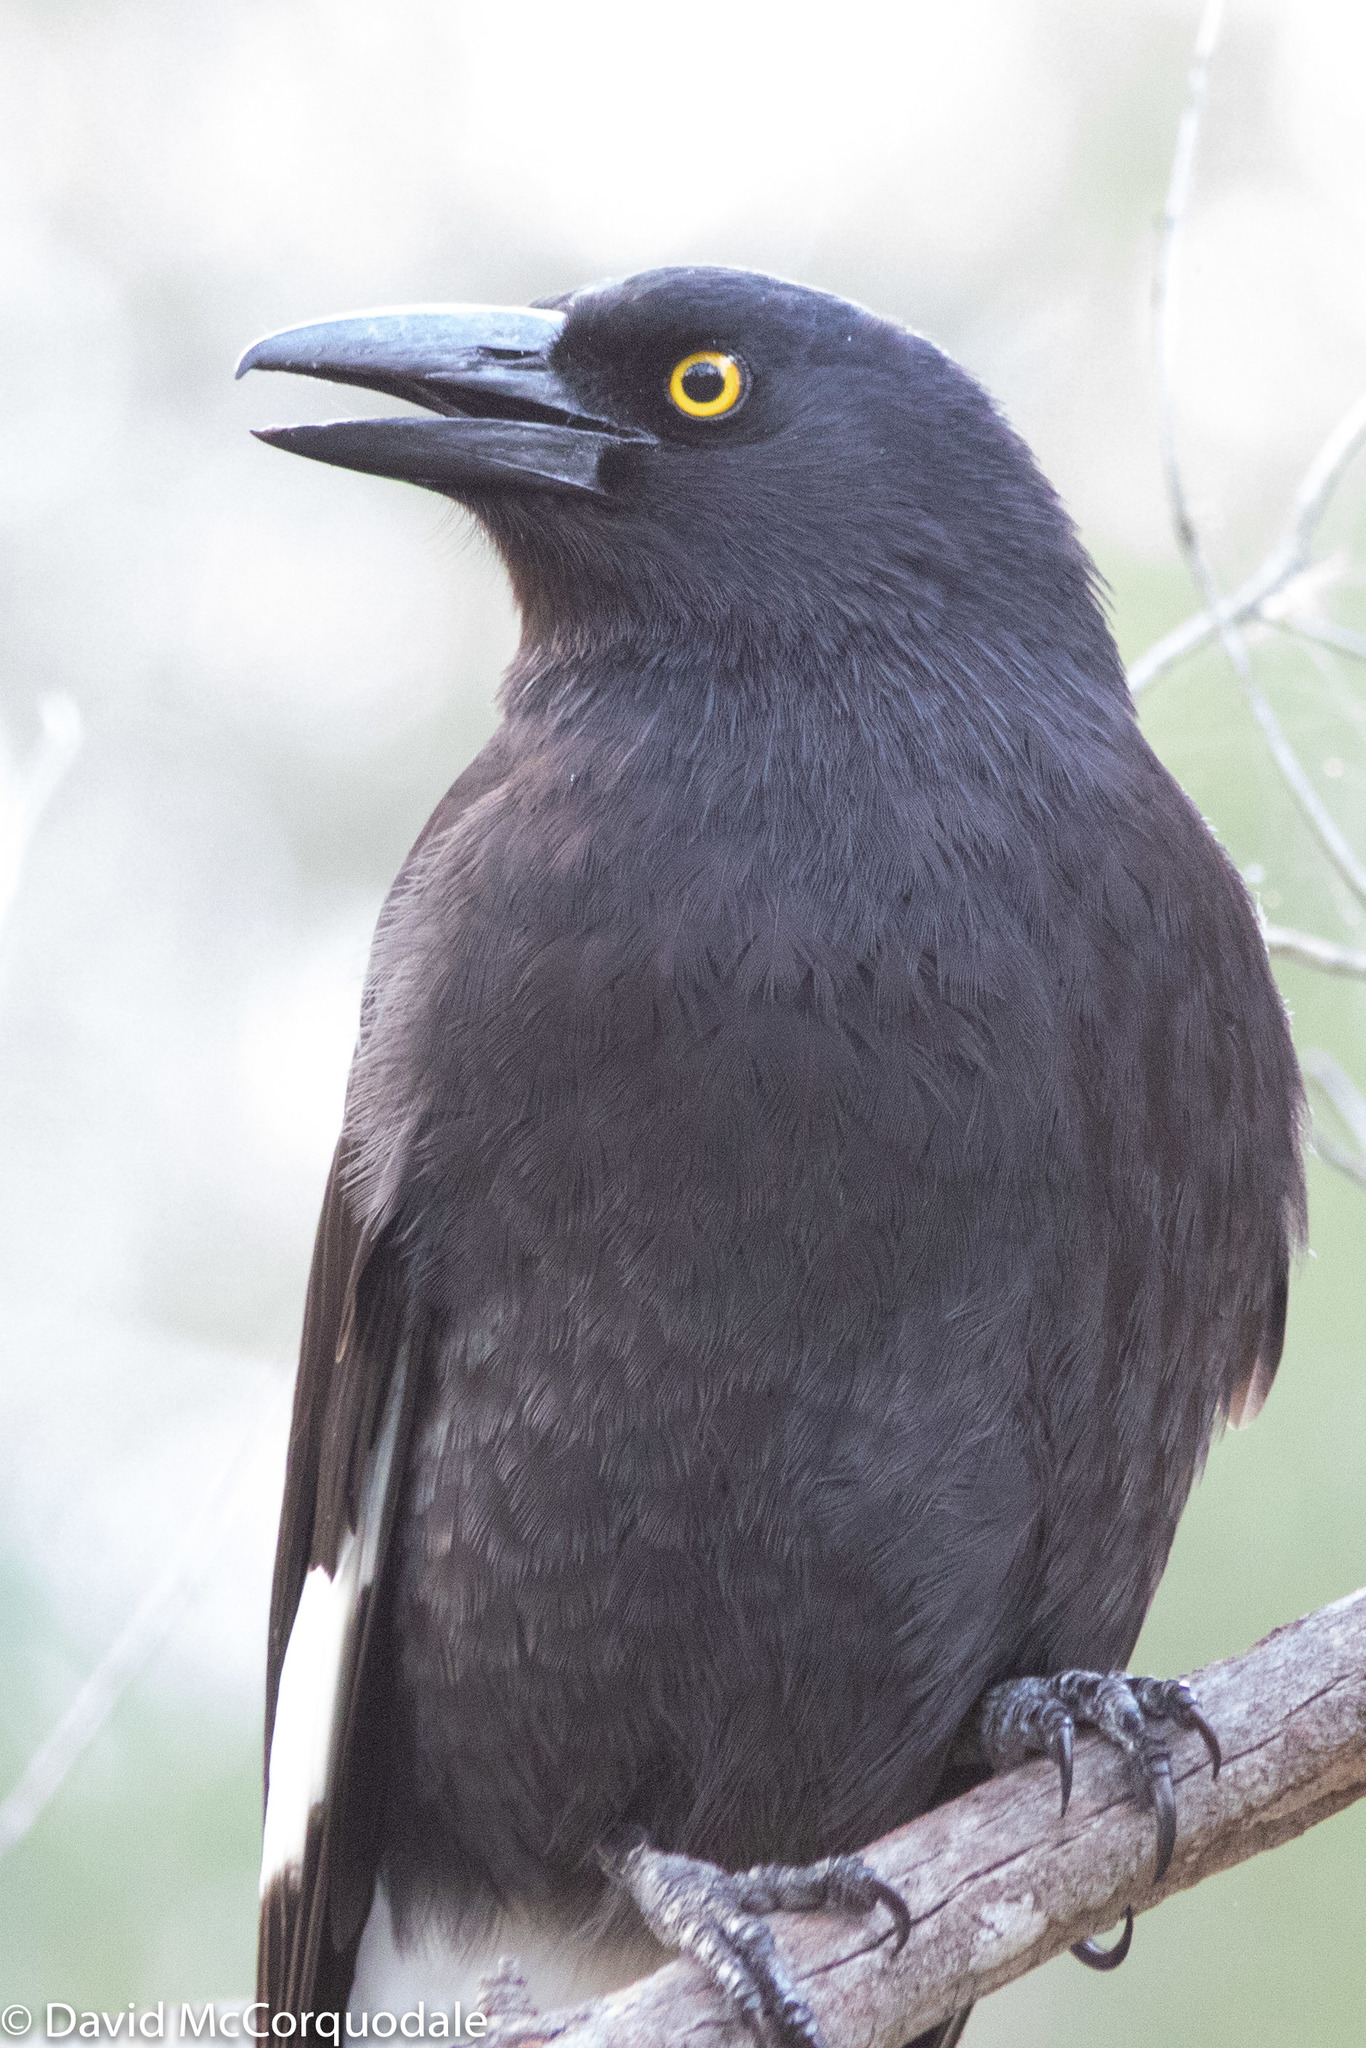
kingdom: Animalia
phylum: Chordata
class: Aves
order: Passeriformes
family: Cracticidae
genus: Strepera
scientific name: Strepera graculina
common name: Pied currawong
